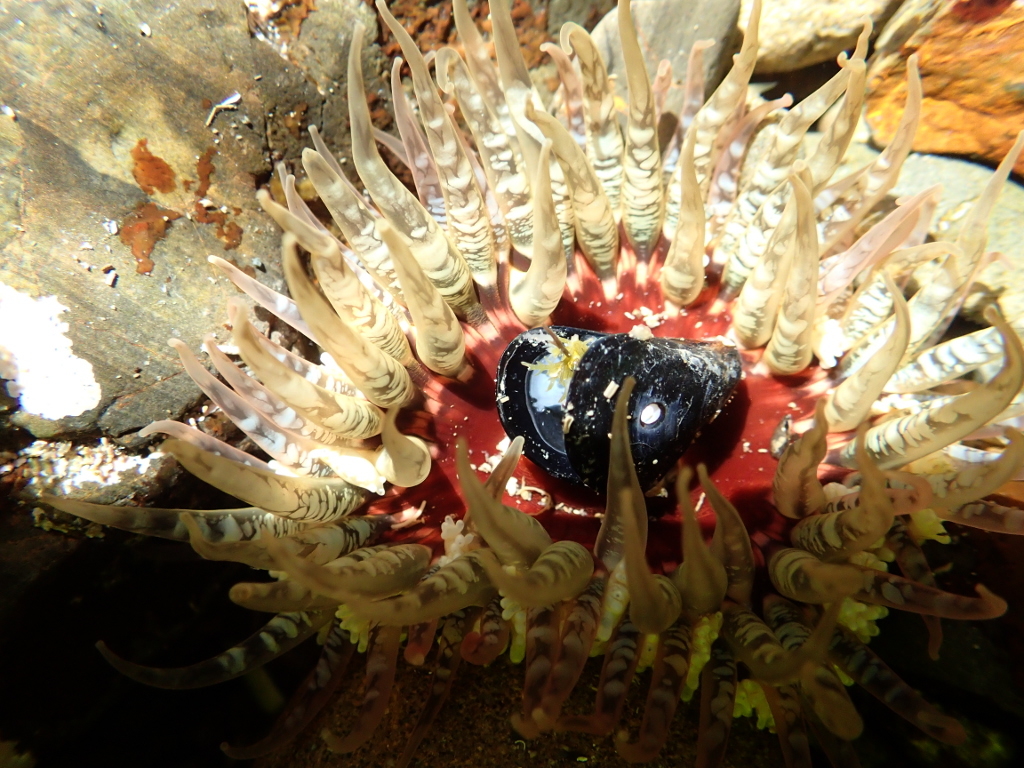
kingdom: Animalia
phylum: Cnidaria
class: Anthozoa
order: Actiniaria
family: Actiniidae
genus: Oulactis
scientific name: Oulactis muscosa
